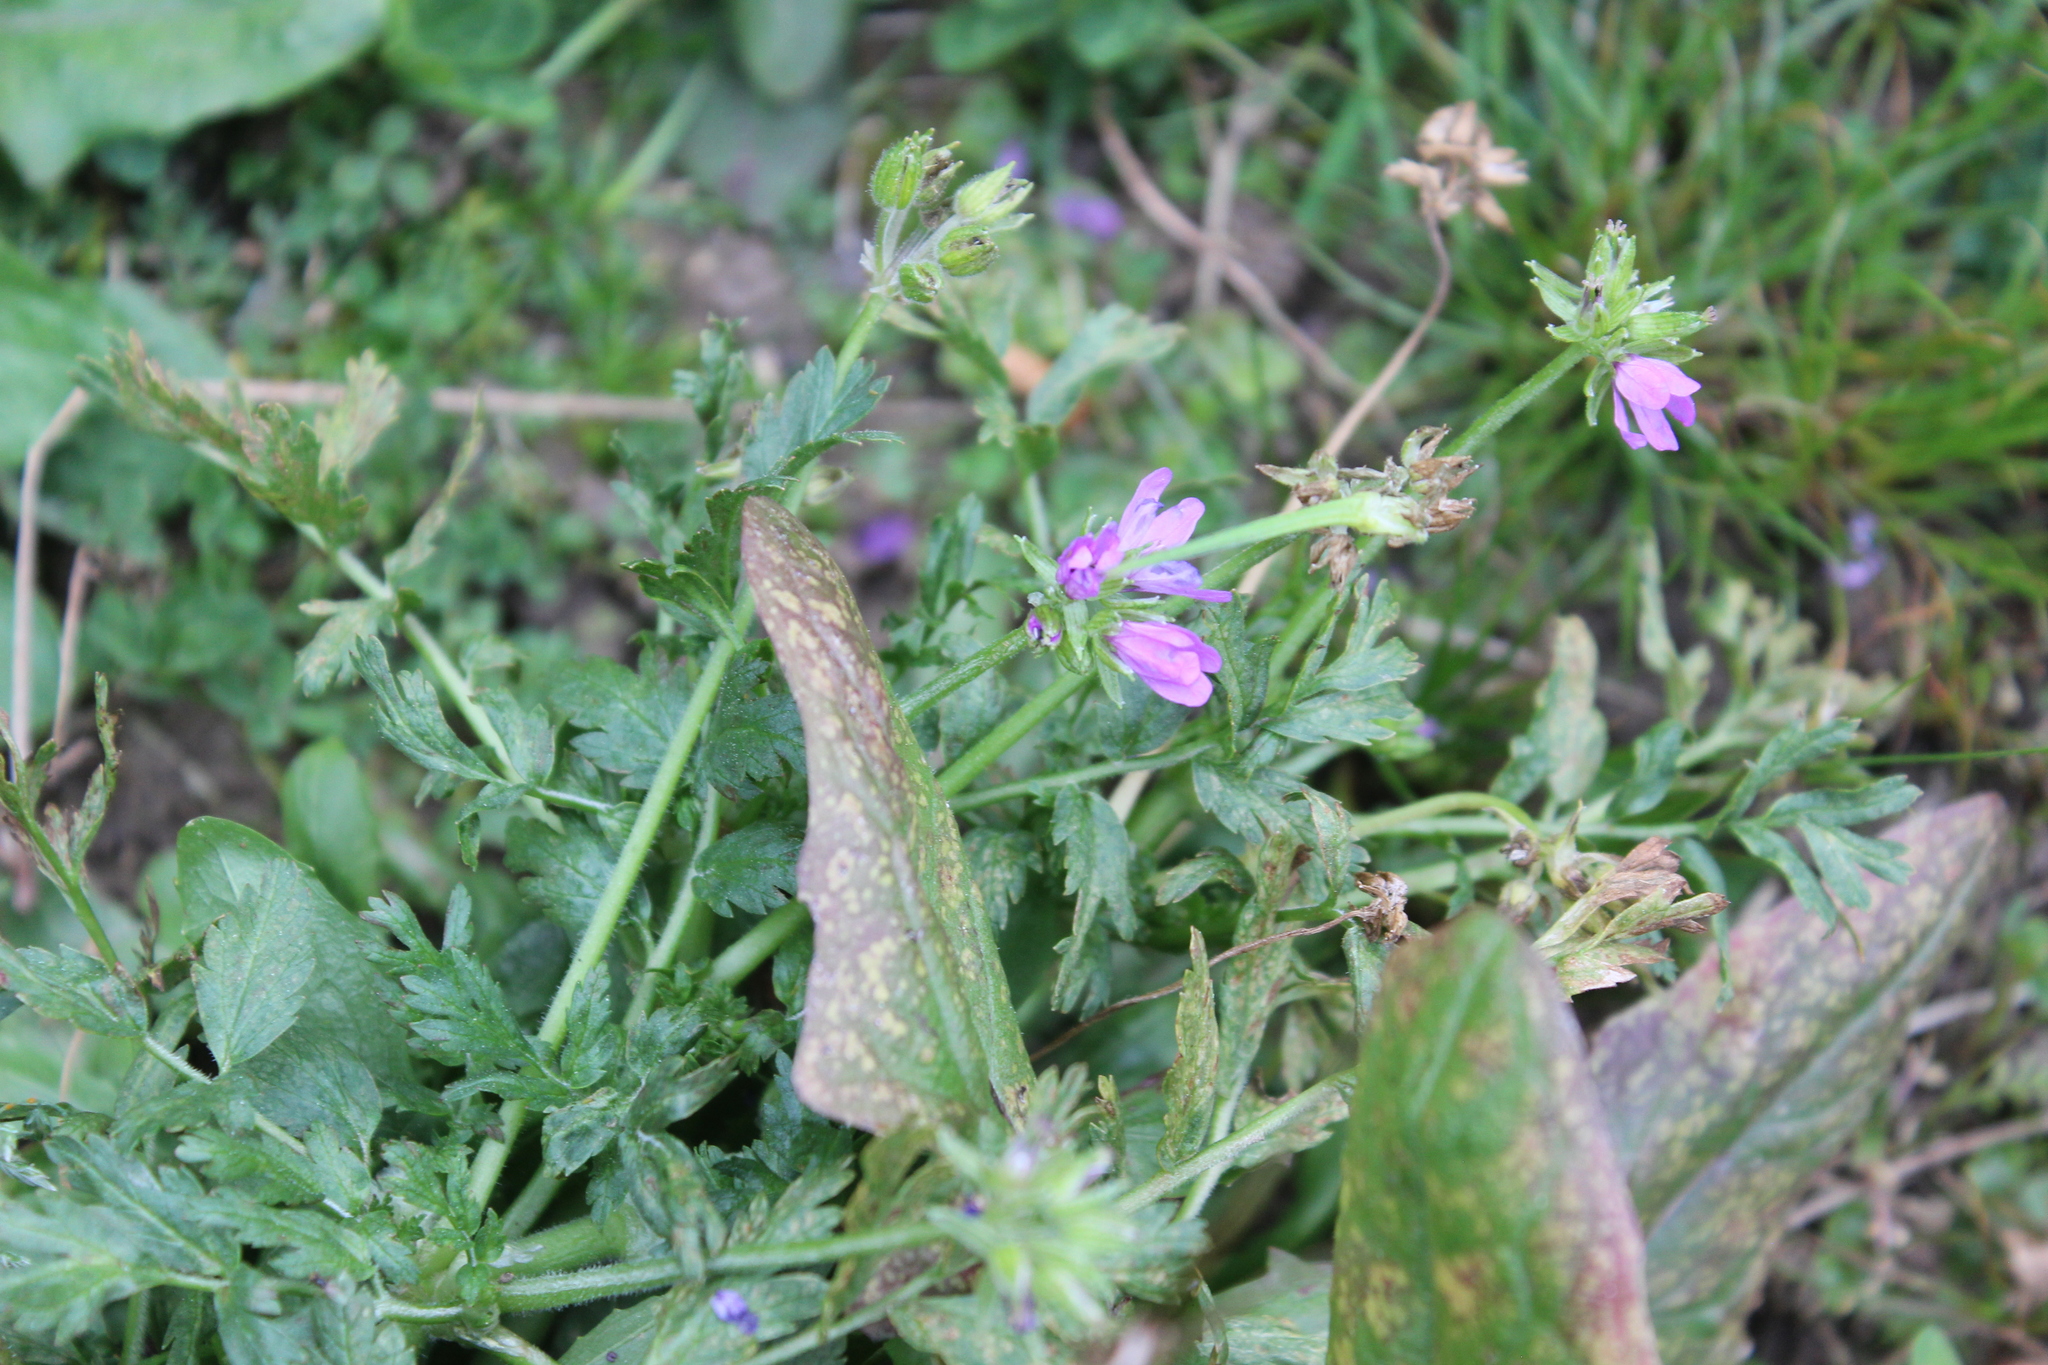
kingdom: Plantae
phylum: Tracheophyta
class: Magnoliopsida
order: Geraniales
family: Geraniaceae
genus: Erodium
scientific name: Erodium moschatum
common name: Musk stork's-bill
